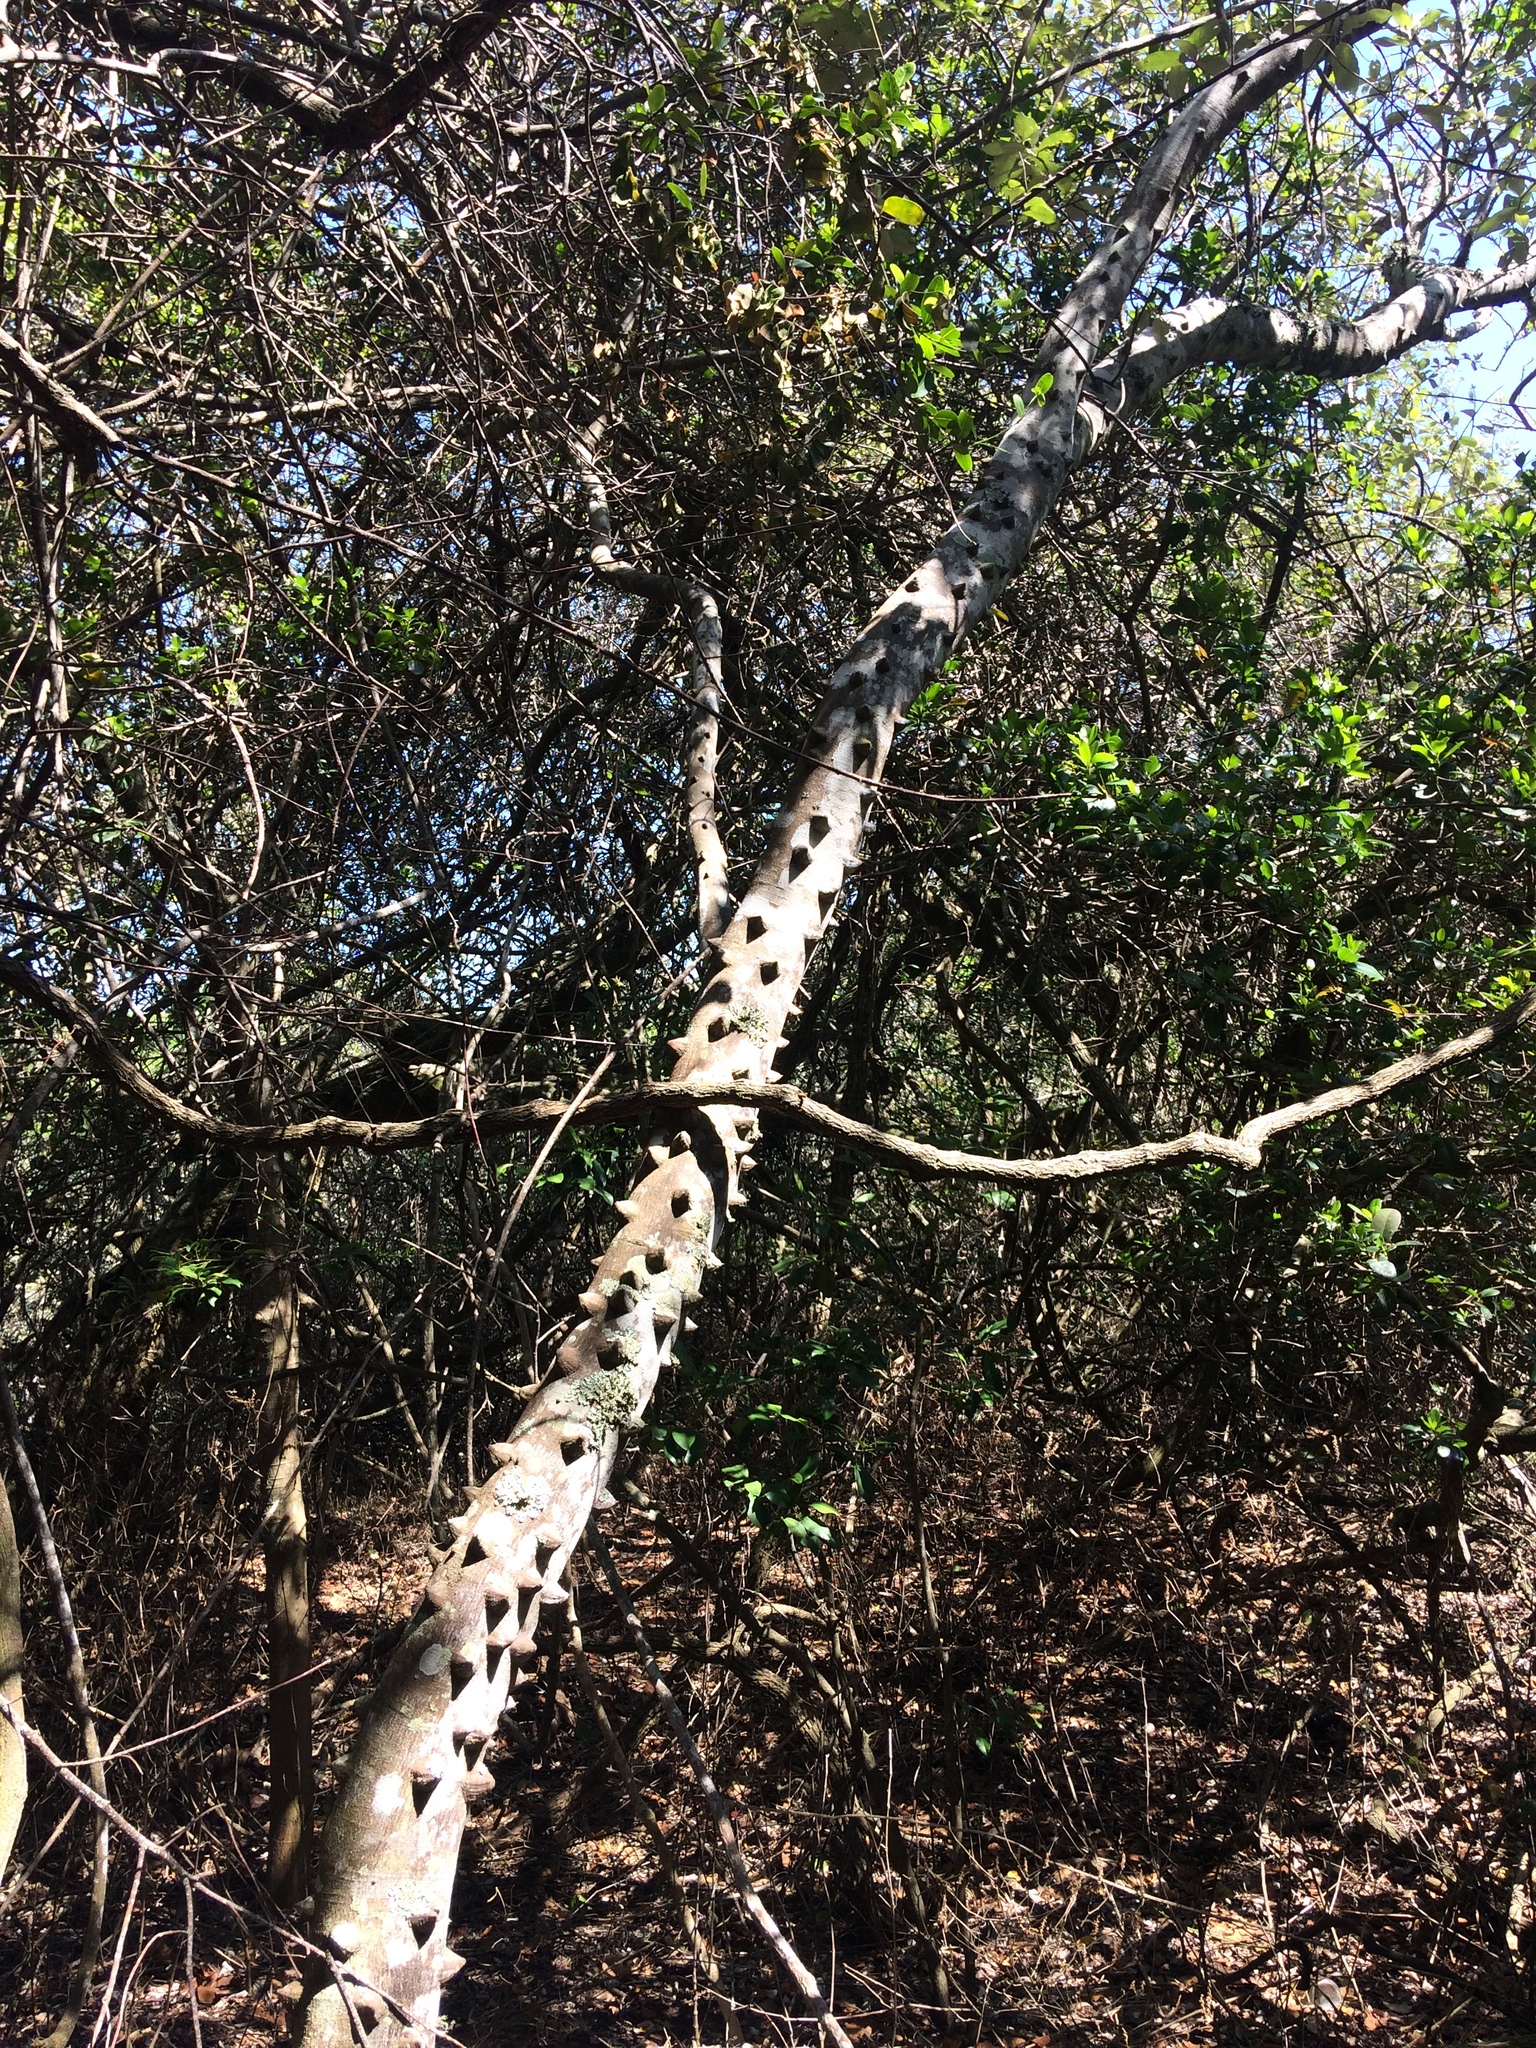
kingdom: Plantae
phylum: Tracheophyta
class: Magnoliopsida
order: Sapindales
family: Rutaceae
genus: Zanthoxylum
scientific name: Zanthoxylum capense
